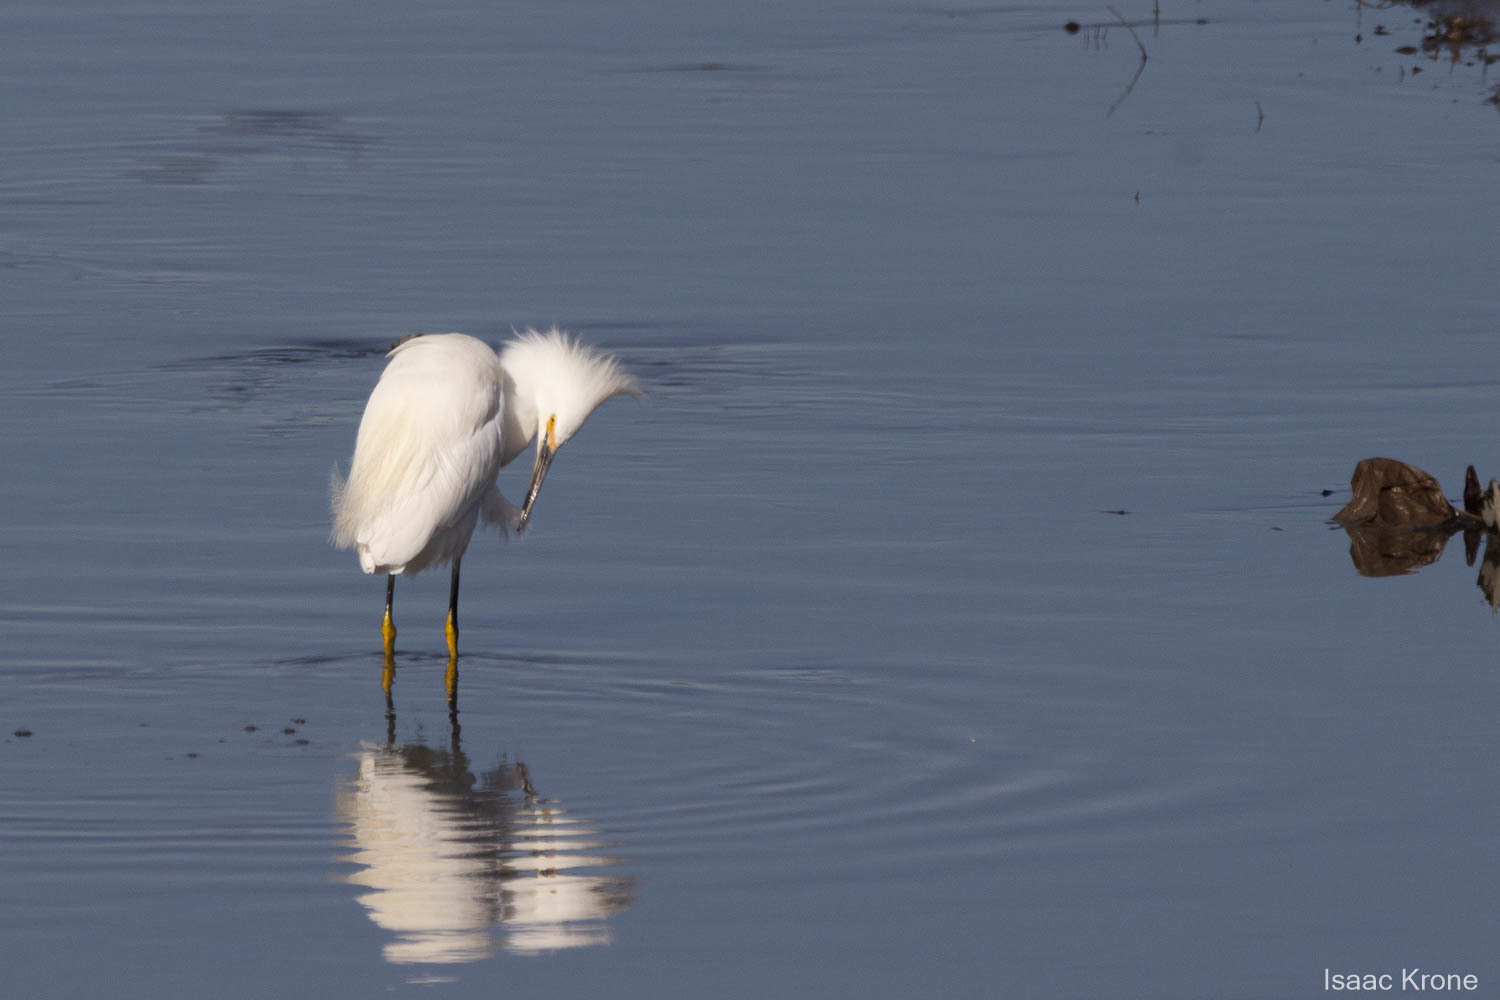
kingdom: Animalia
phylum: Chordata
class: Aves
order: Pelecaniformes
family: Ardeidae
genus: Egretta
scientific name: Egretta thula
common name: Snowy egret
